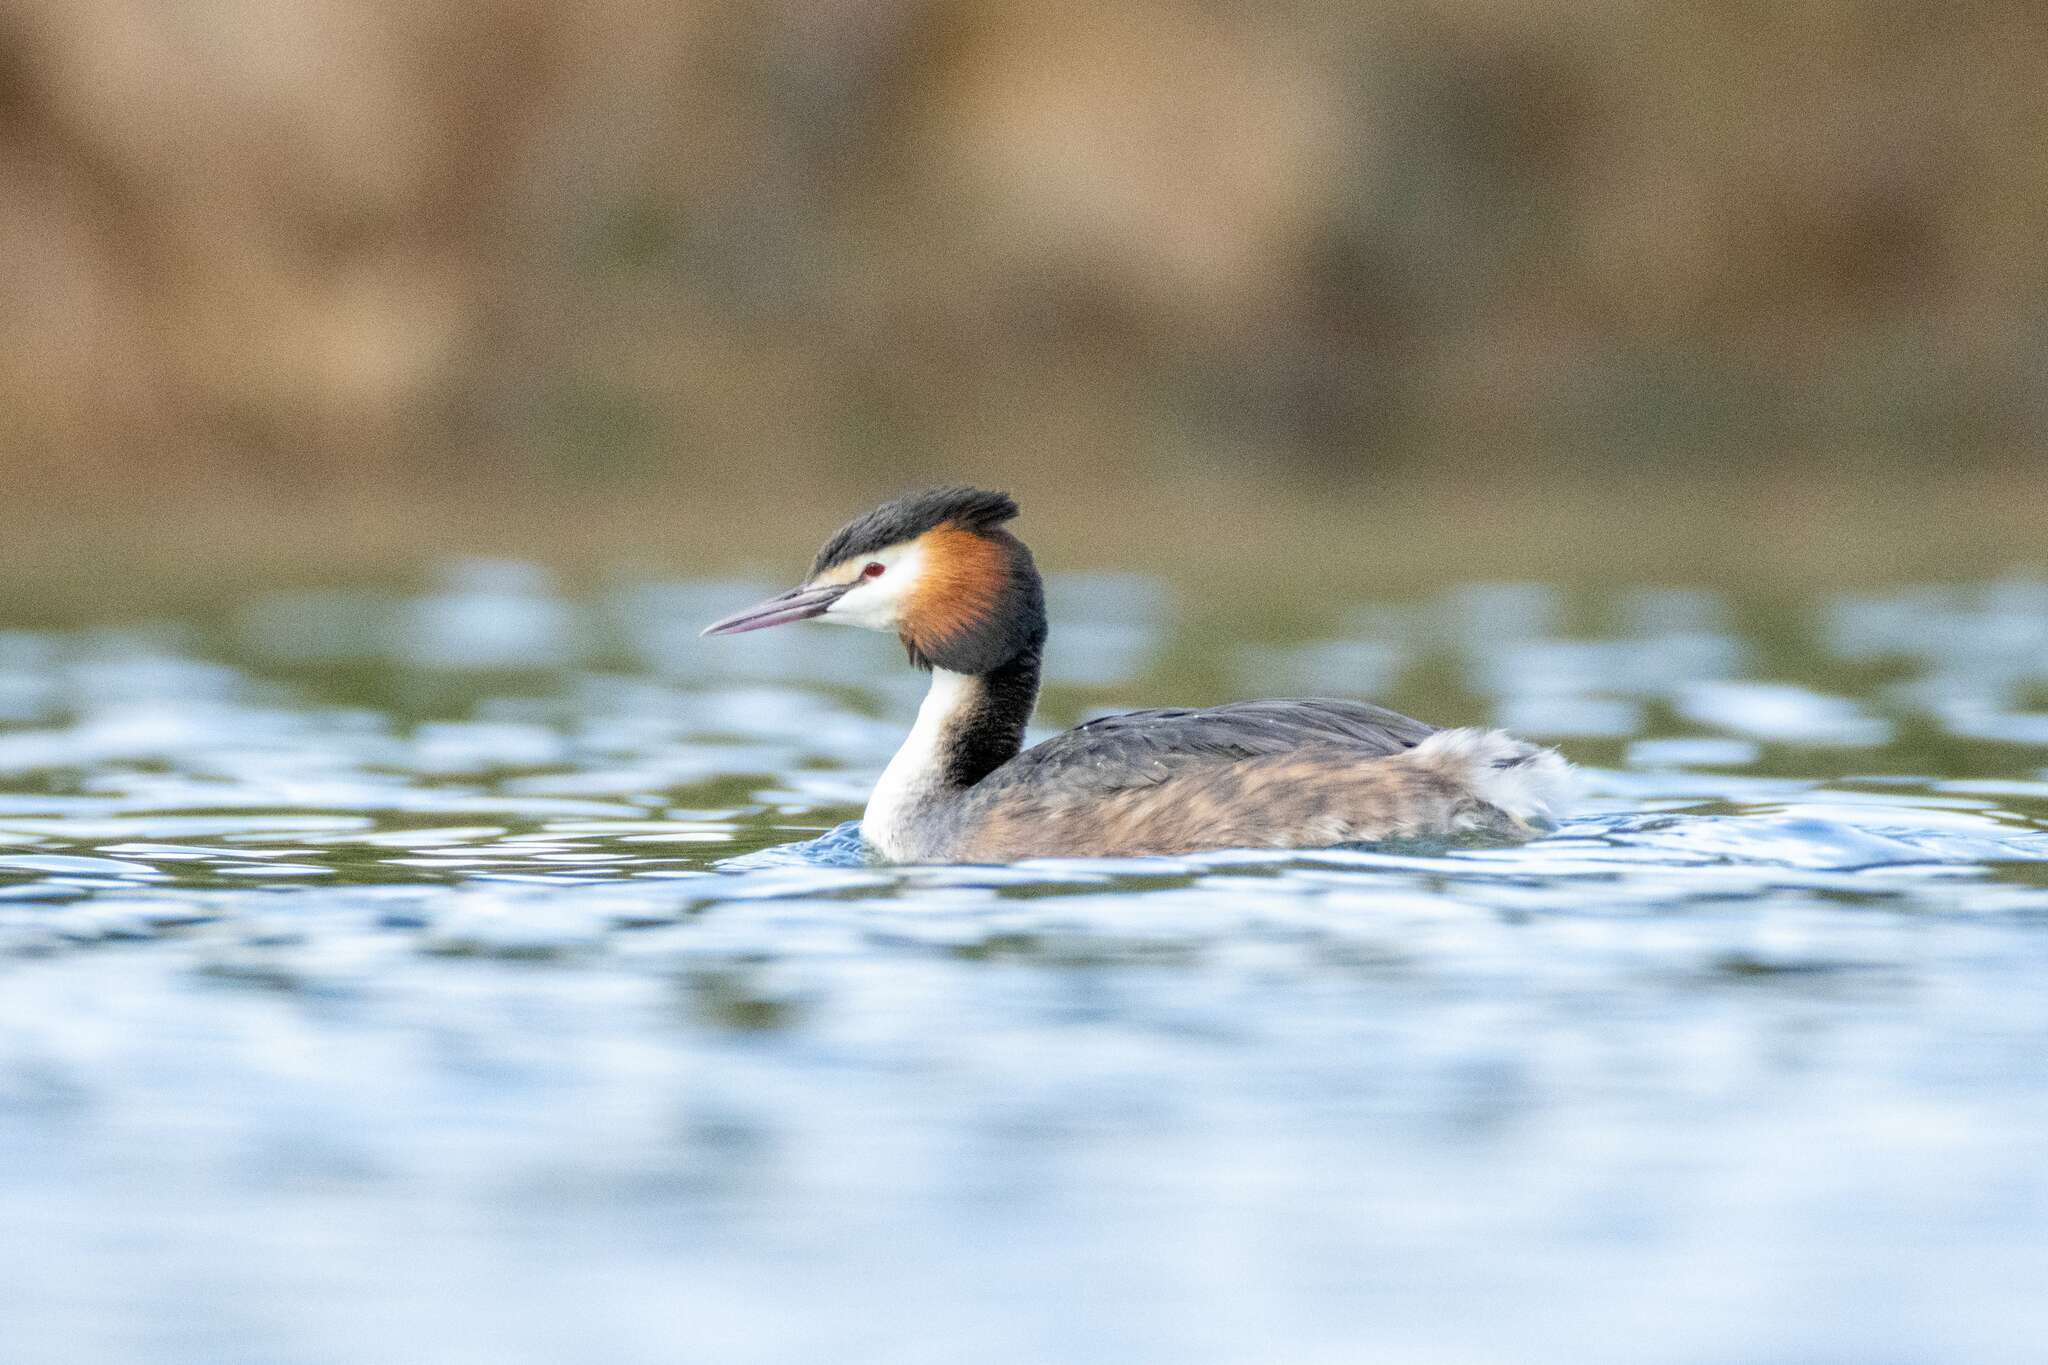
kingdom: Animalia
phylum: Chordata
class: Aves
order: Podicipediformes
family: Podicipedidae
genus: Podiceps
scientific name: Podiceps cristatus
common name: Great crested grebe
